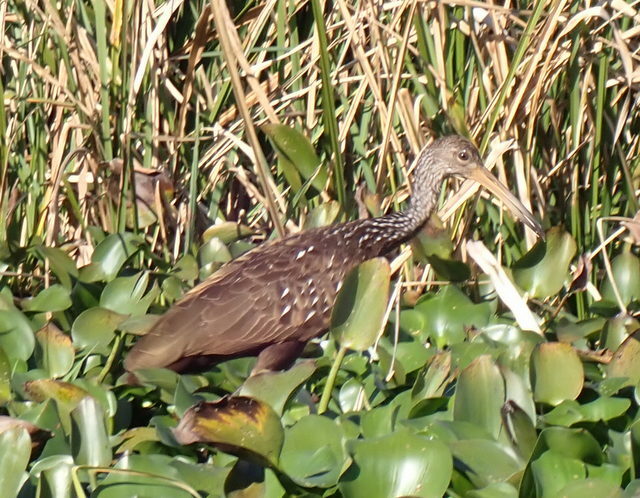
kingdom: Animalia
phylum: Chordata
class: Aves
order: Gruiformes
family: Aramidae
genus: Aramus
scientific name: Aramus guarauna
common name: Limpkin
